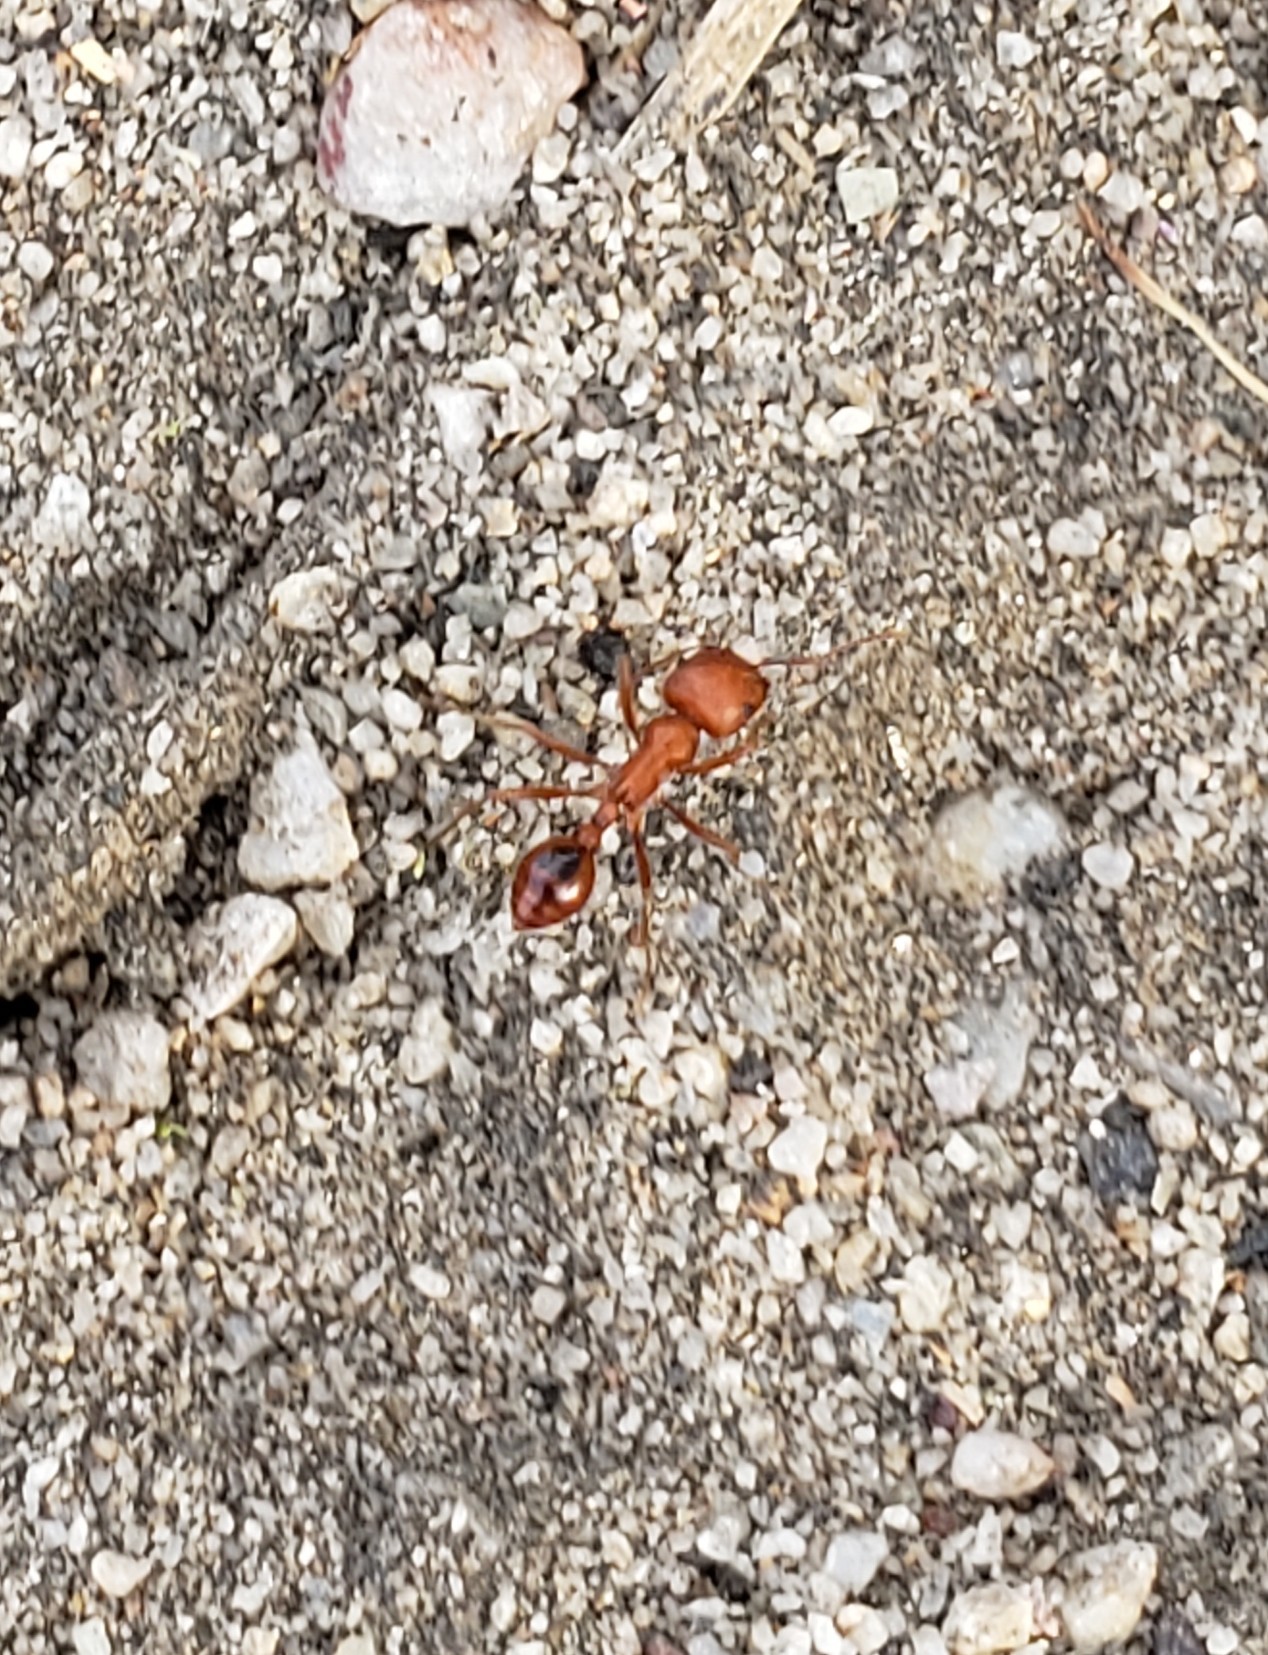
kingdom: Animalia
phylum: Arthropoda
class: Insecta
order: Hymenoptera
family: Formicidae
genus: Pogonomyrmex
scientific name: Pogonomyrmex
